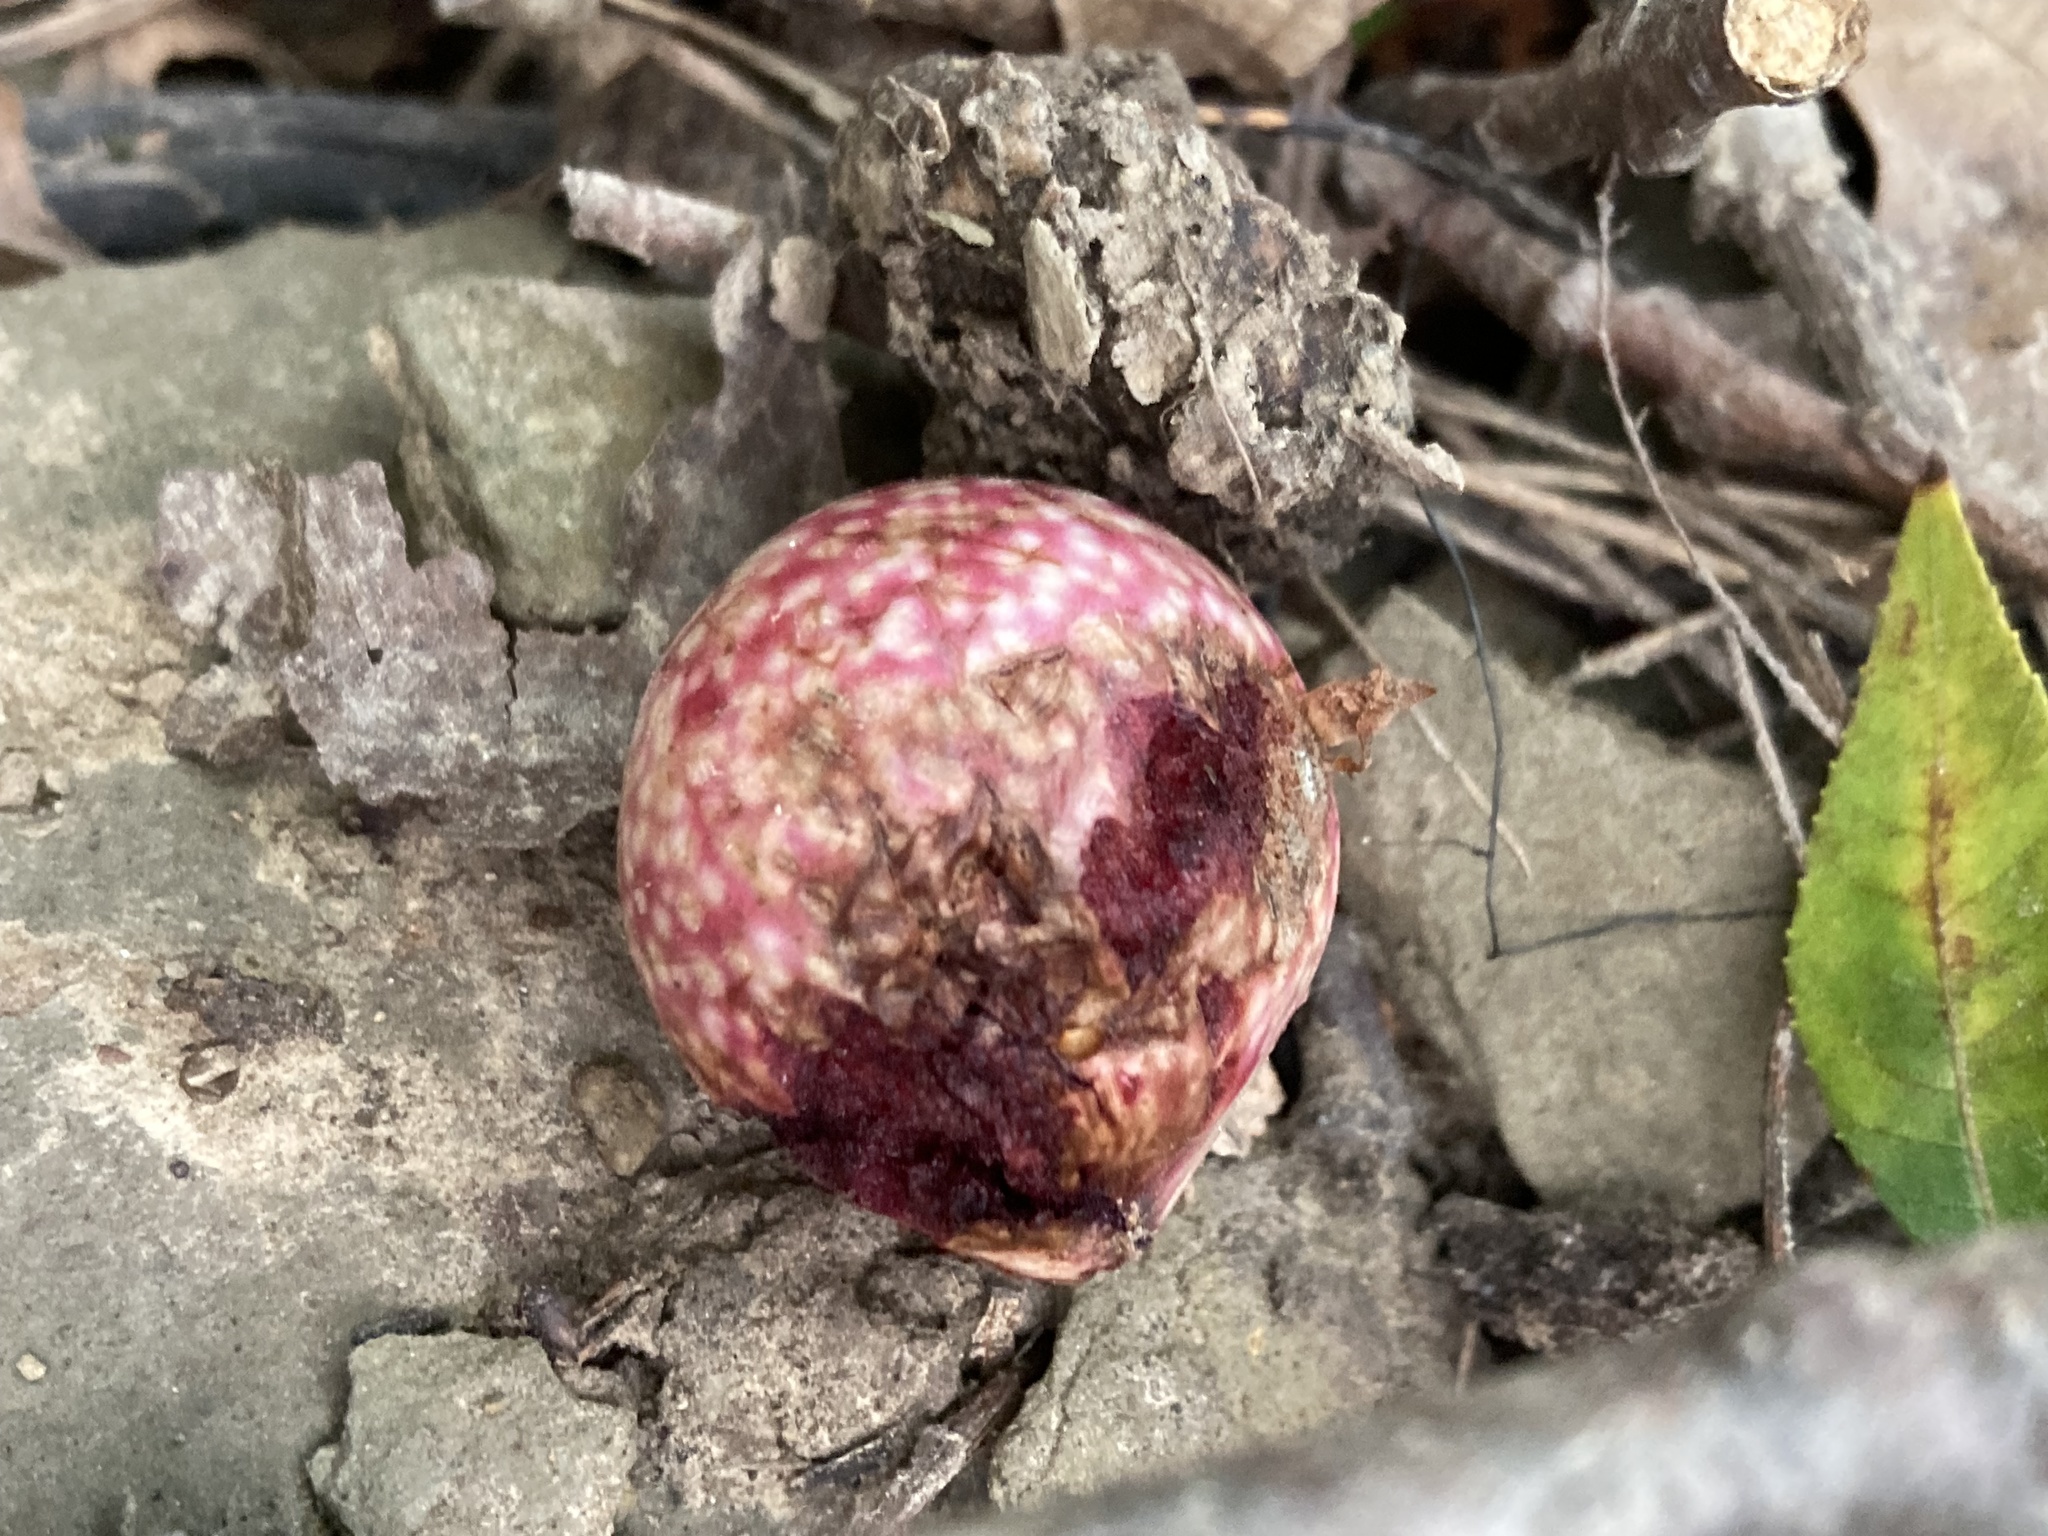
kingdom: Animalia
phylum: Arthropoda
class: Insecta
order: Hymenoptera
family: Cynipidae
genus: Amphibolips
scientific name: Amphibolips
